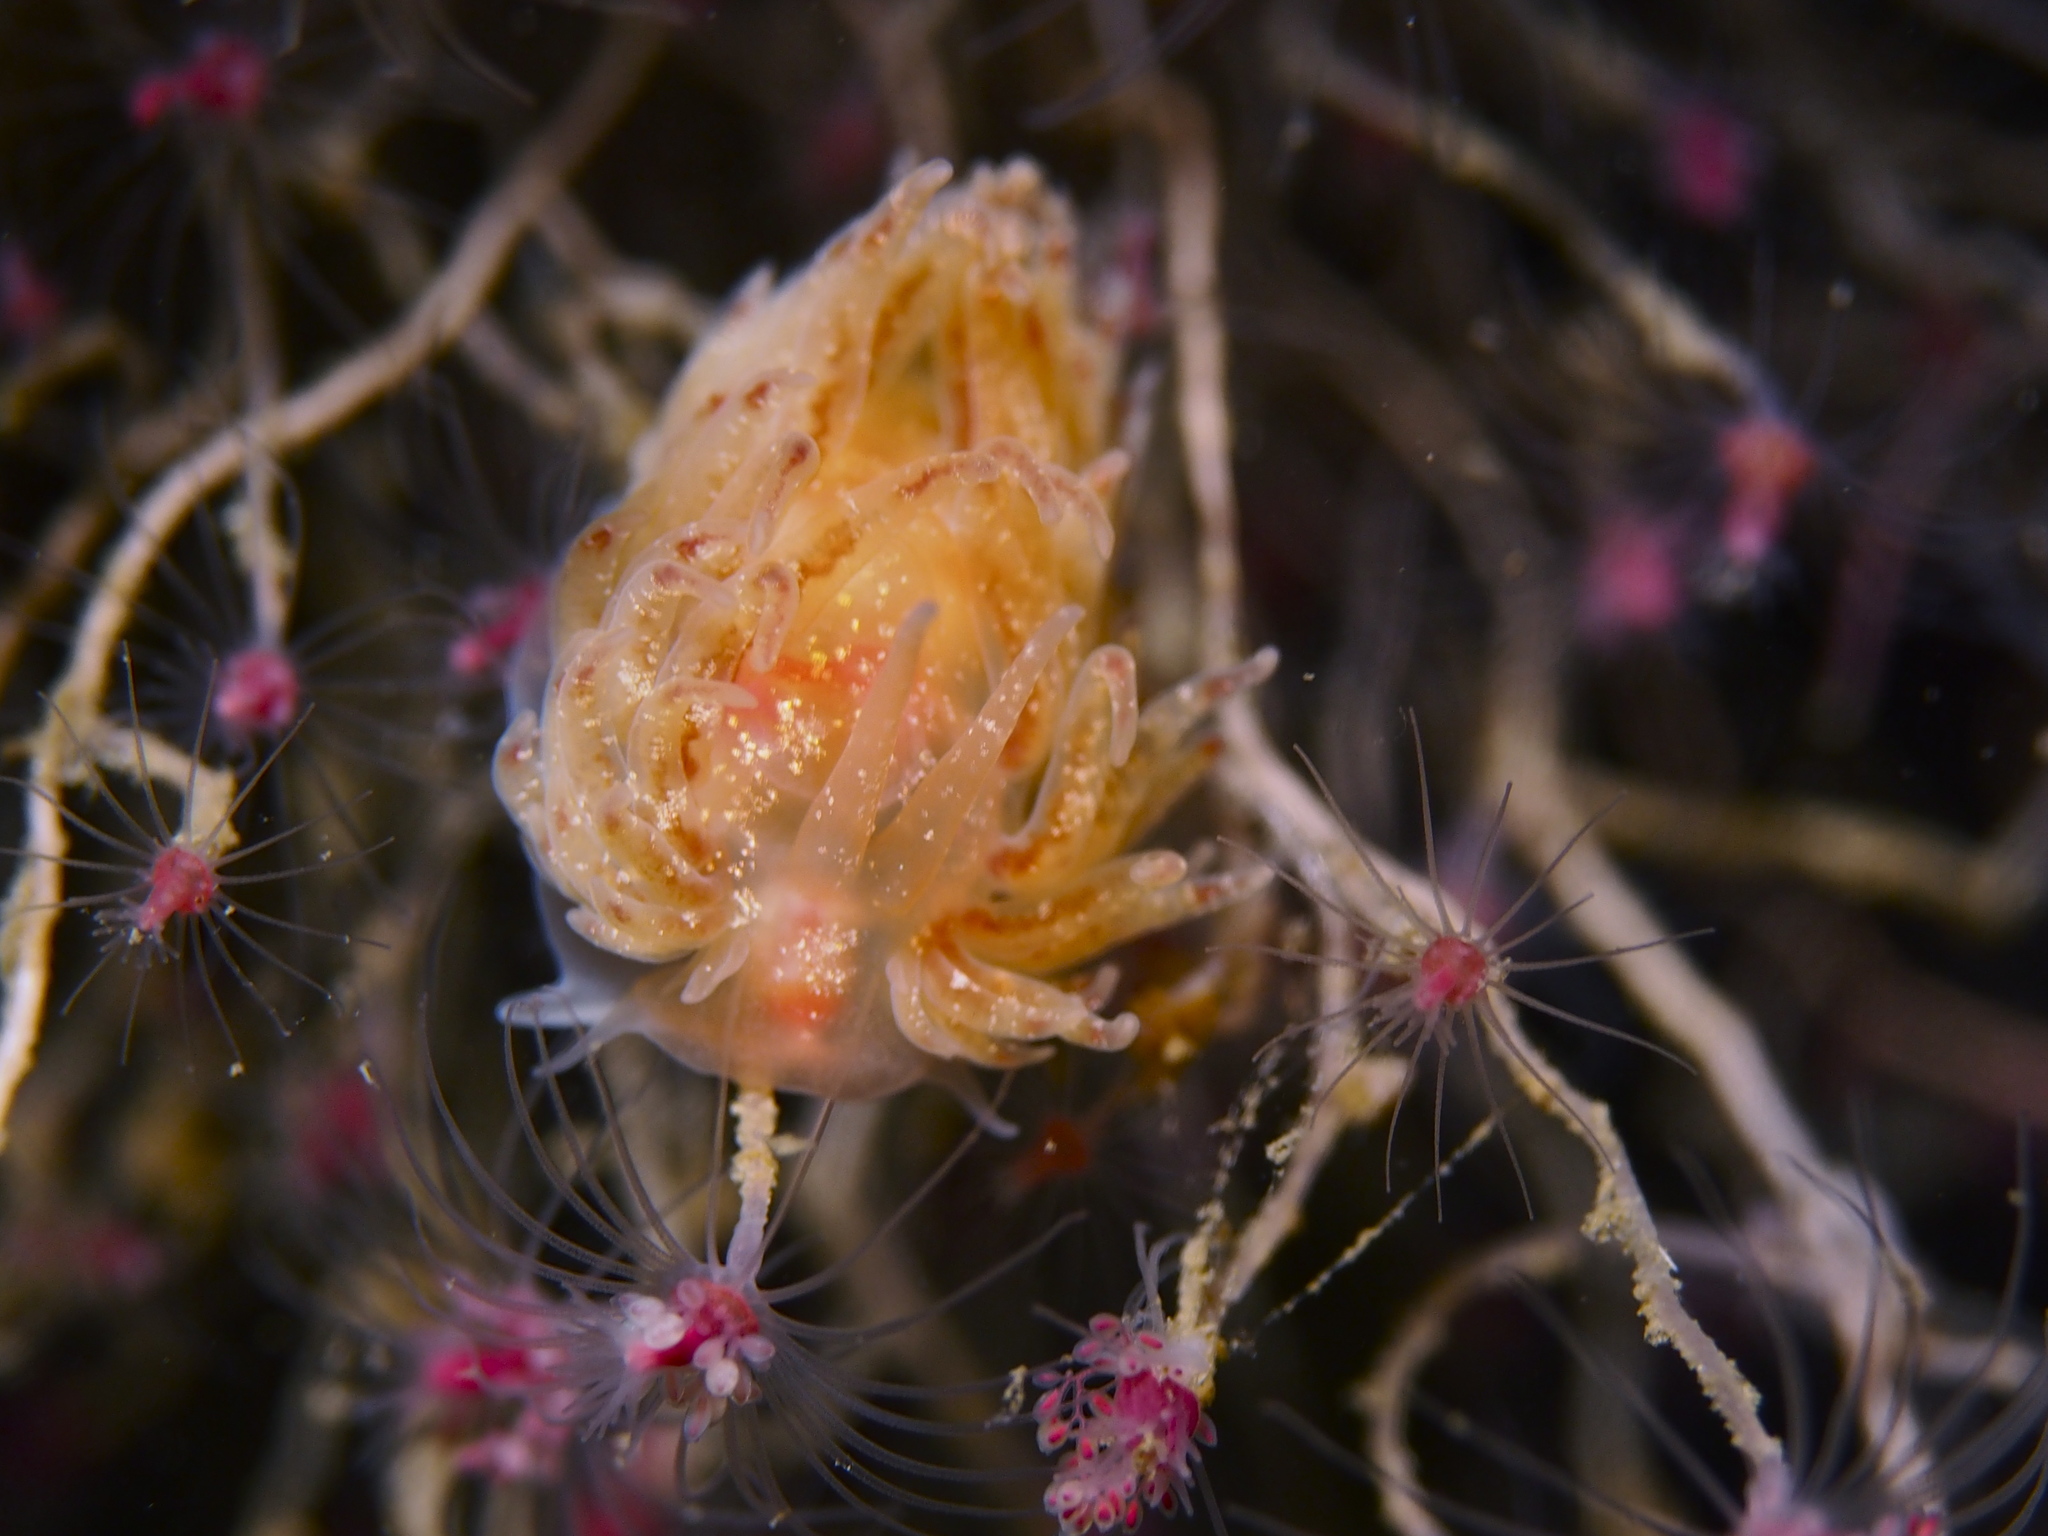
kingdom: Animalia
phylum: Mollusca
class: Gastropoda
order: Nudibranchia
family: Cumanotidae
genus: Cumanotus
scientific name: Cumanotus beaumonti
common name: Polyp aeolis
